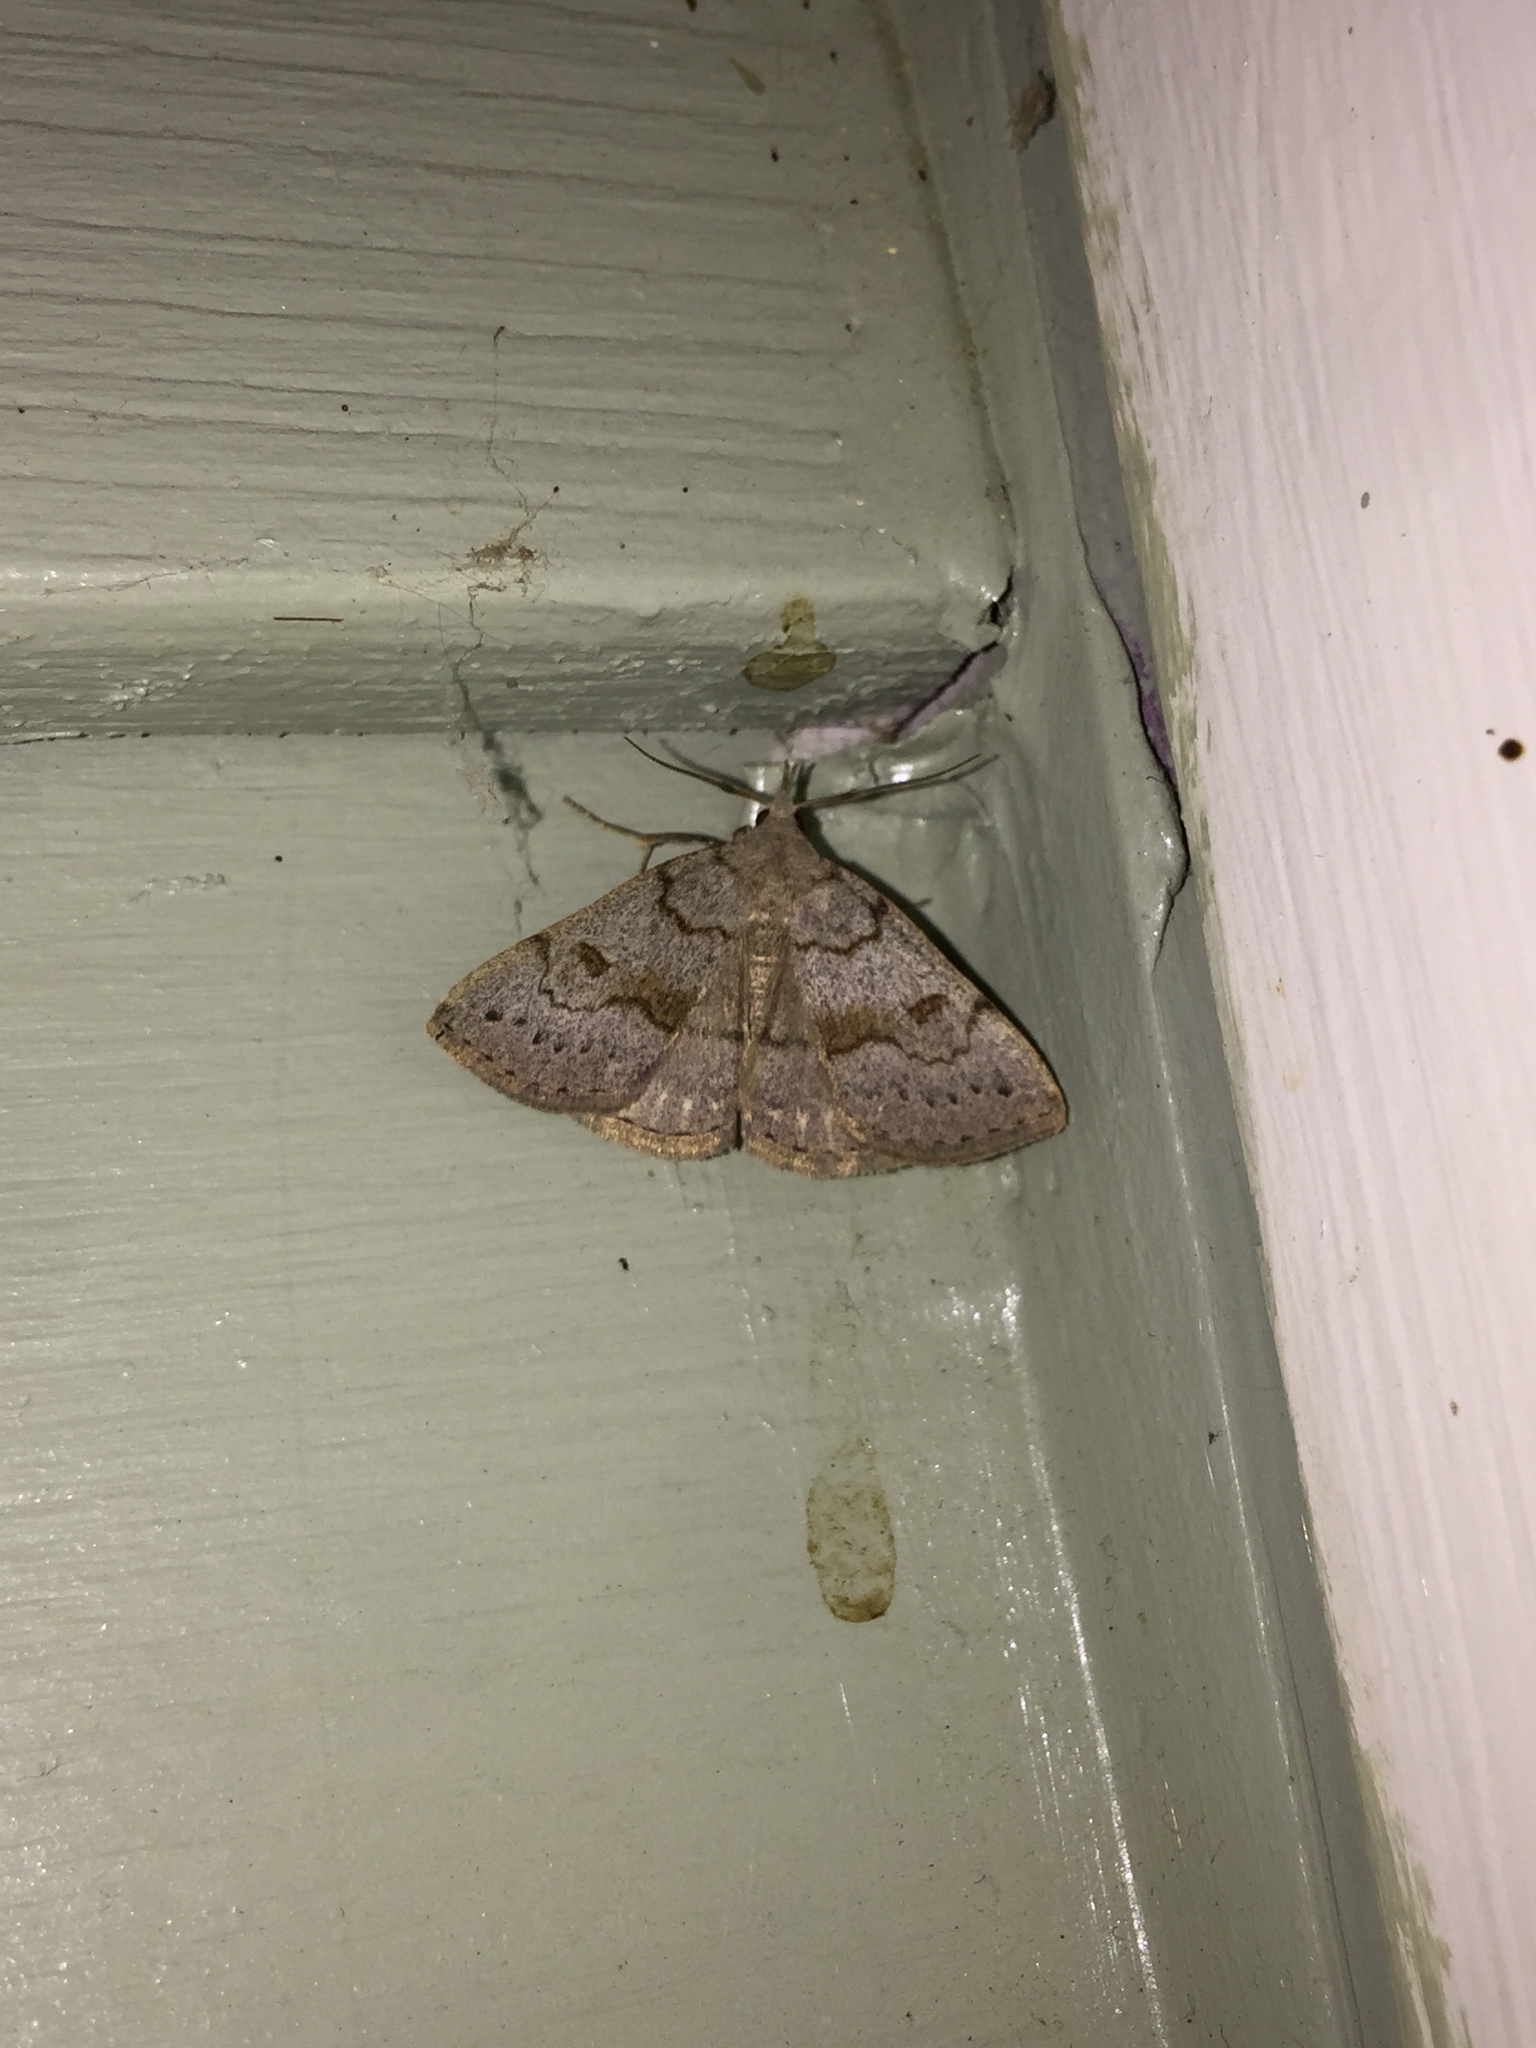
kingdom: Animalia
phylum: Arthropoda
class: Insecta
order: Lepidoptera
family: Erebidae
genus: Macrochilo
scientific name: Macrochilo morbidalis
